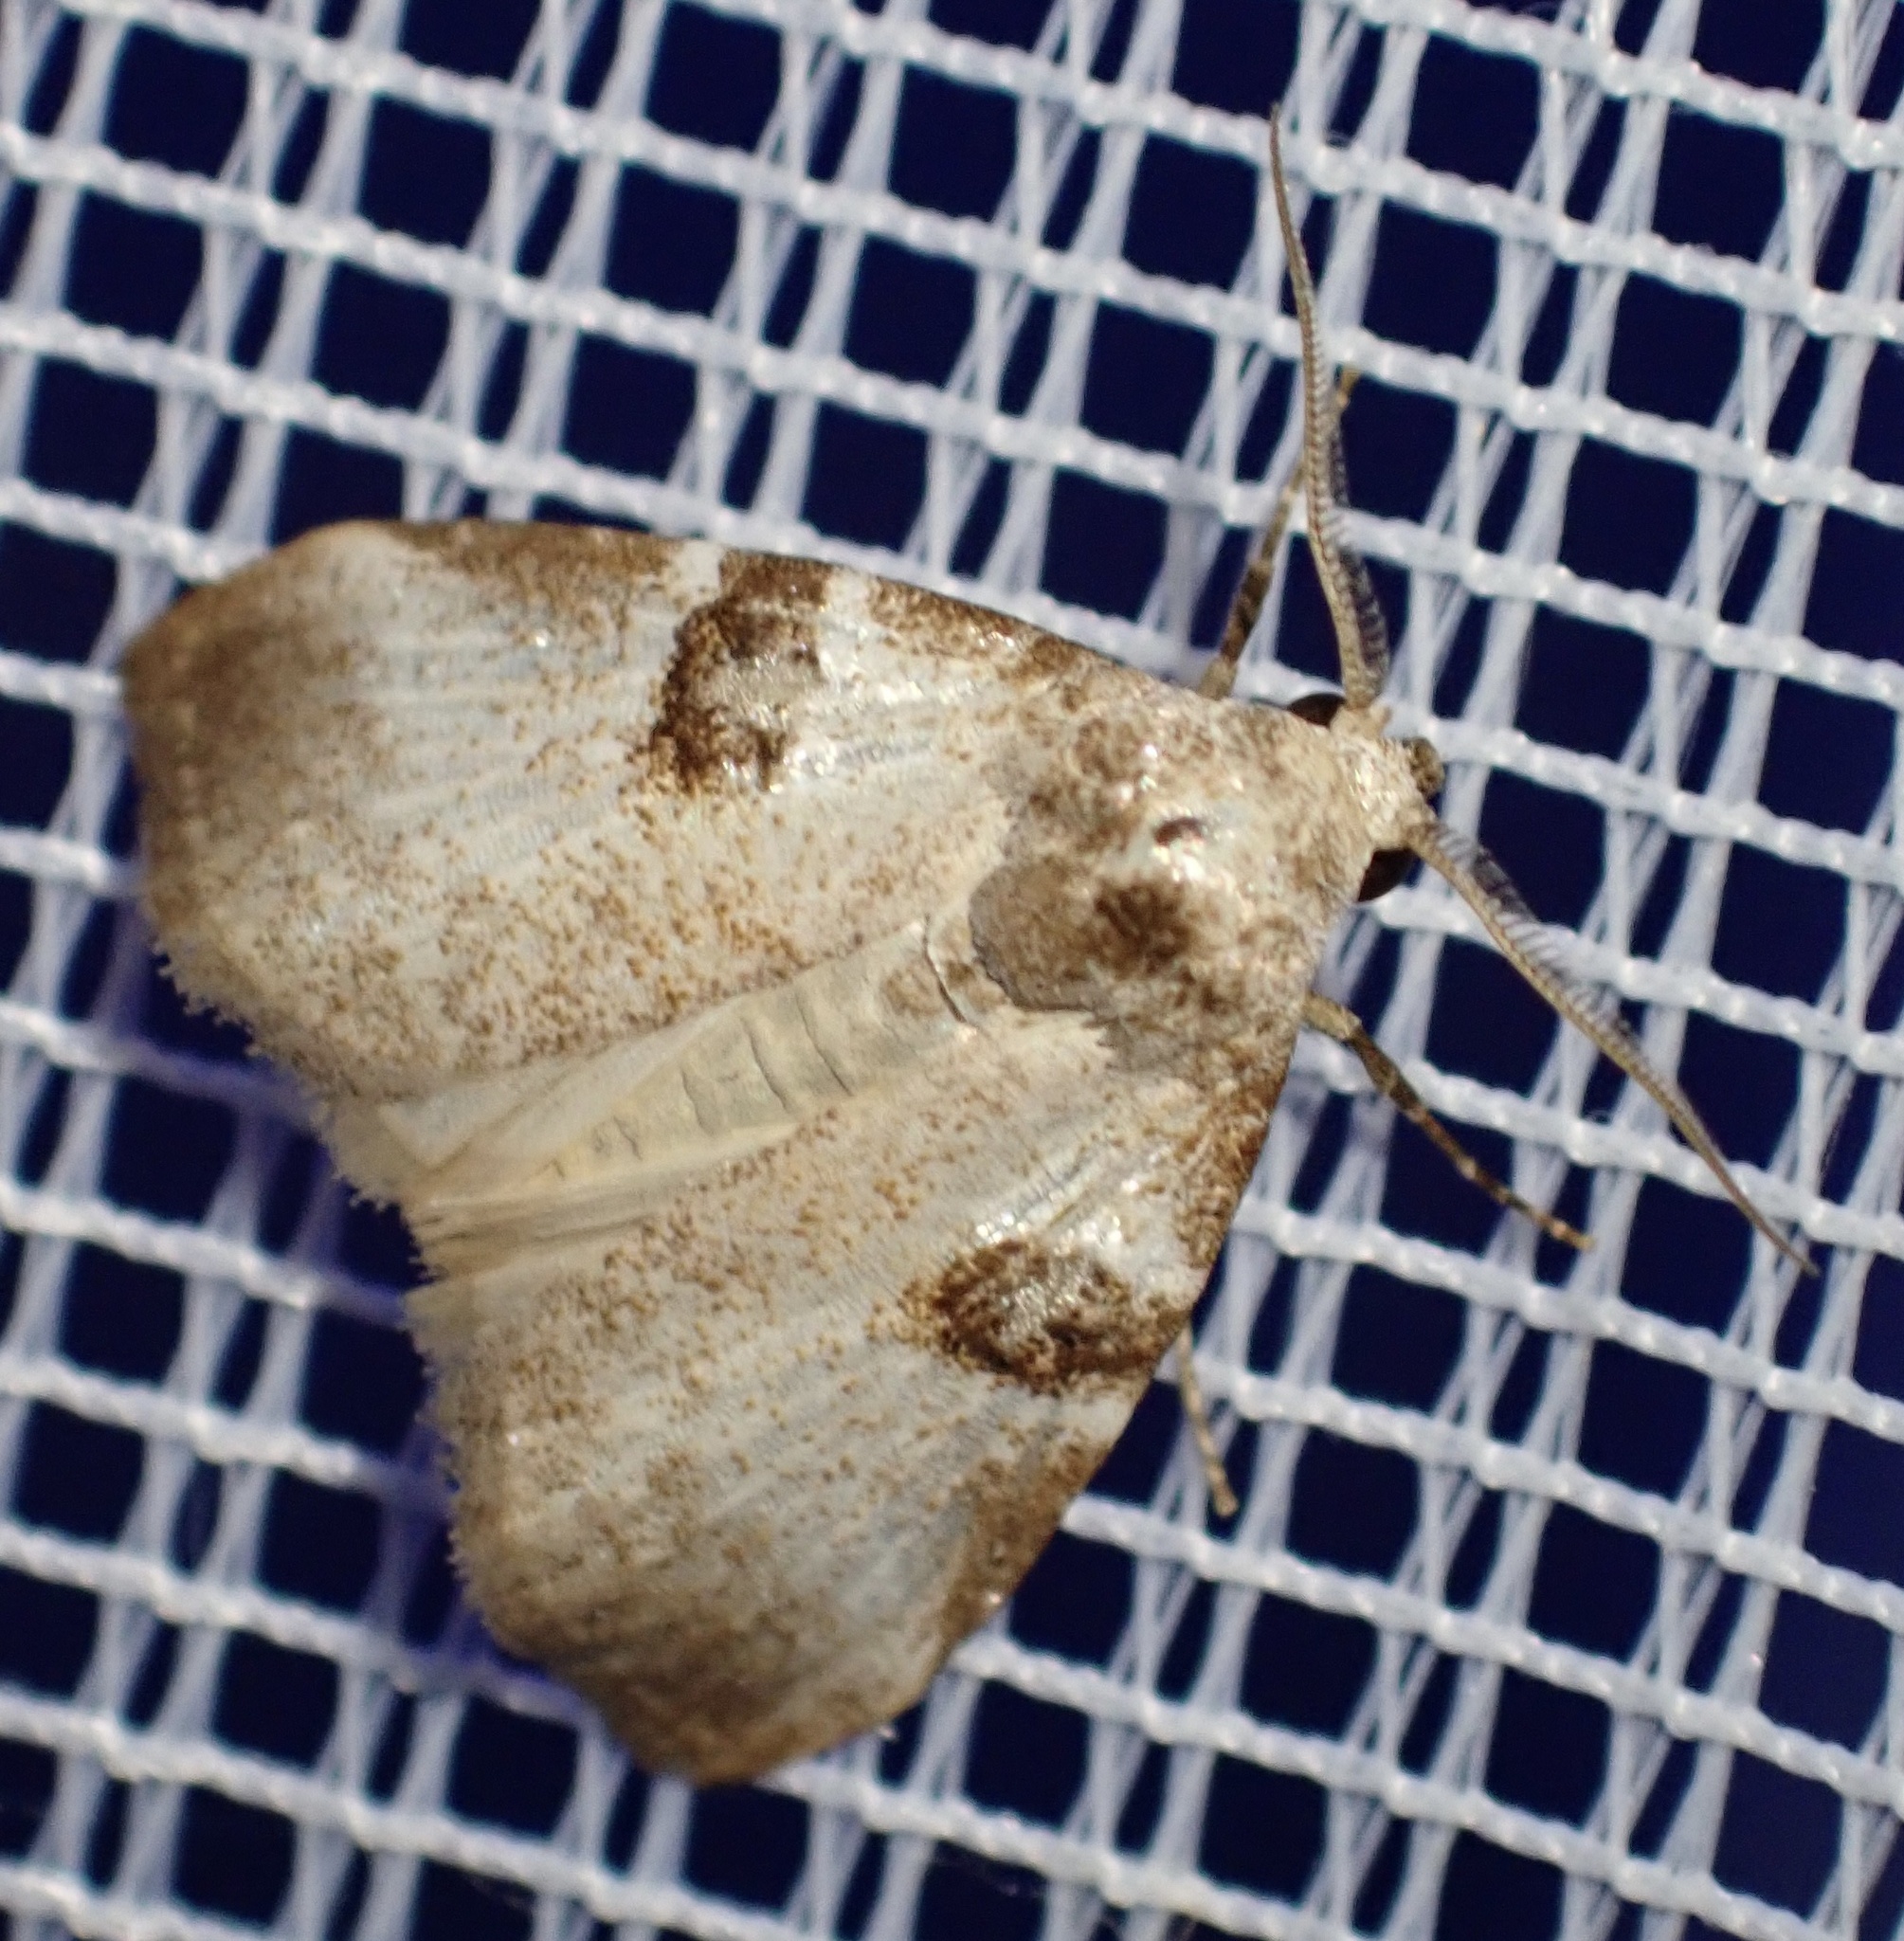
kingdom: Animalia
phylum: Arthropoda
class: Insecta
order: Lepidoptera
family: Nolidae
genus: Meganola
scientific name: Meganola
